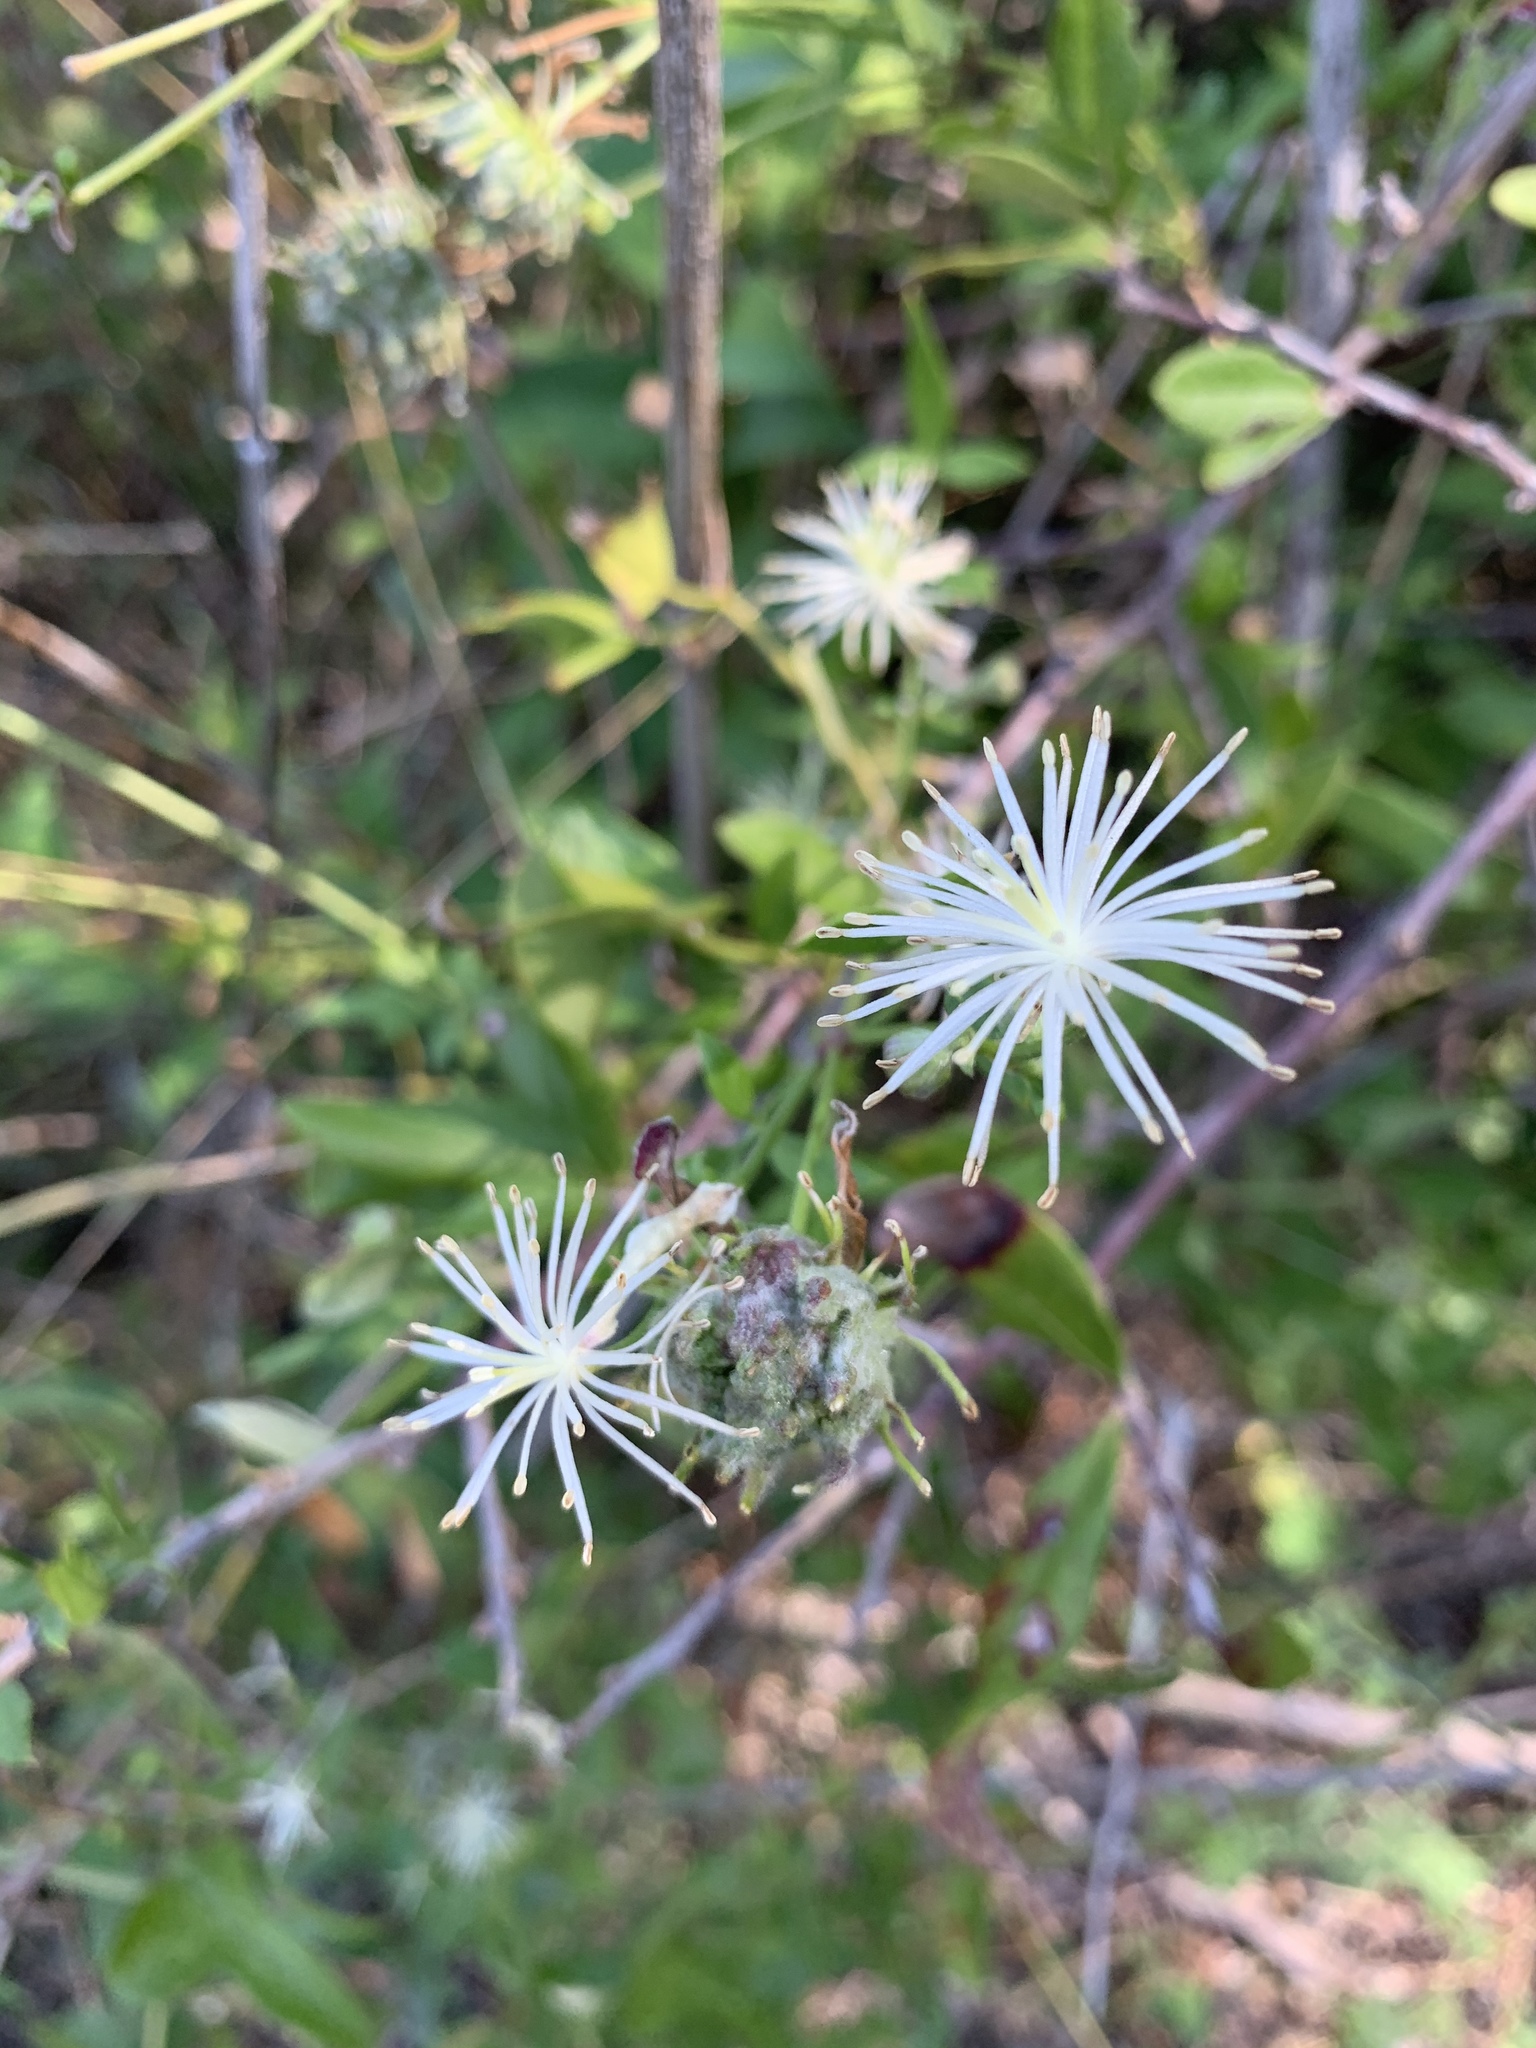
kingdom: Plantae
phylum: Tracheophyta
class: Magnoliopsida
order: Ranunculales
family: Ranunculaceae
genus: Clematis
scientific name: Clematis drummondii
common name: Texas virgin's bower
